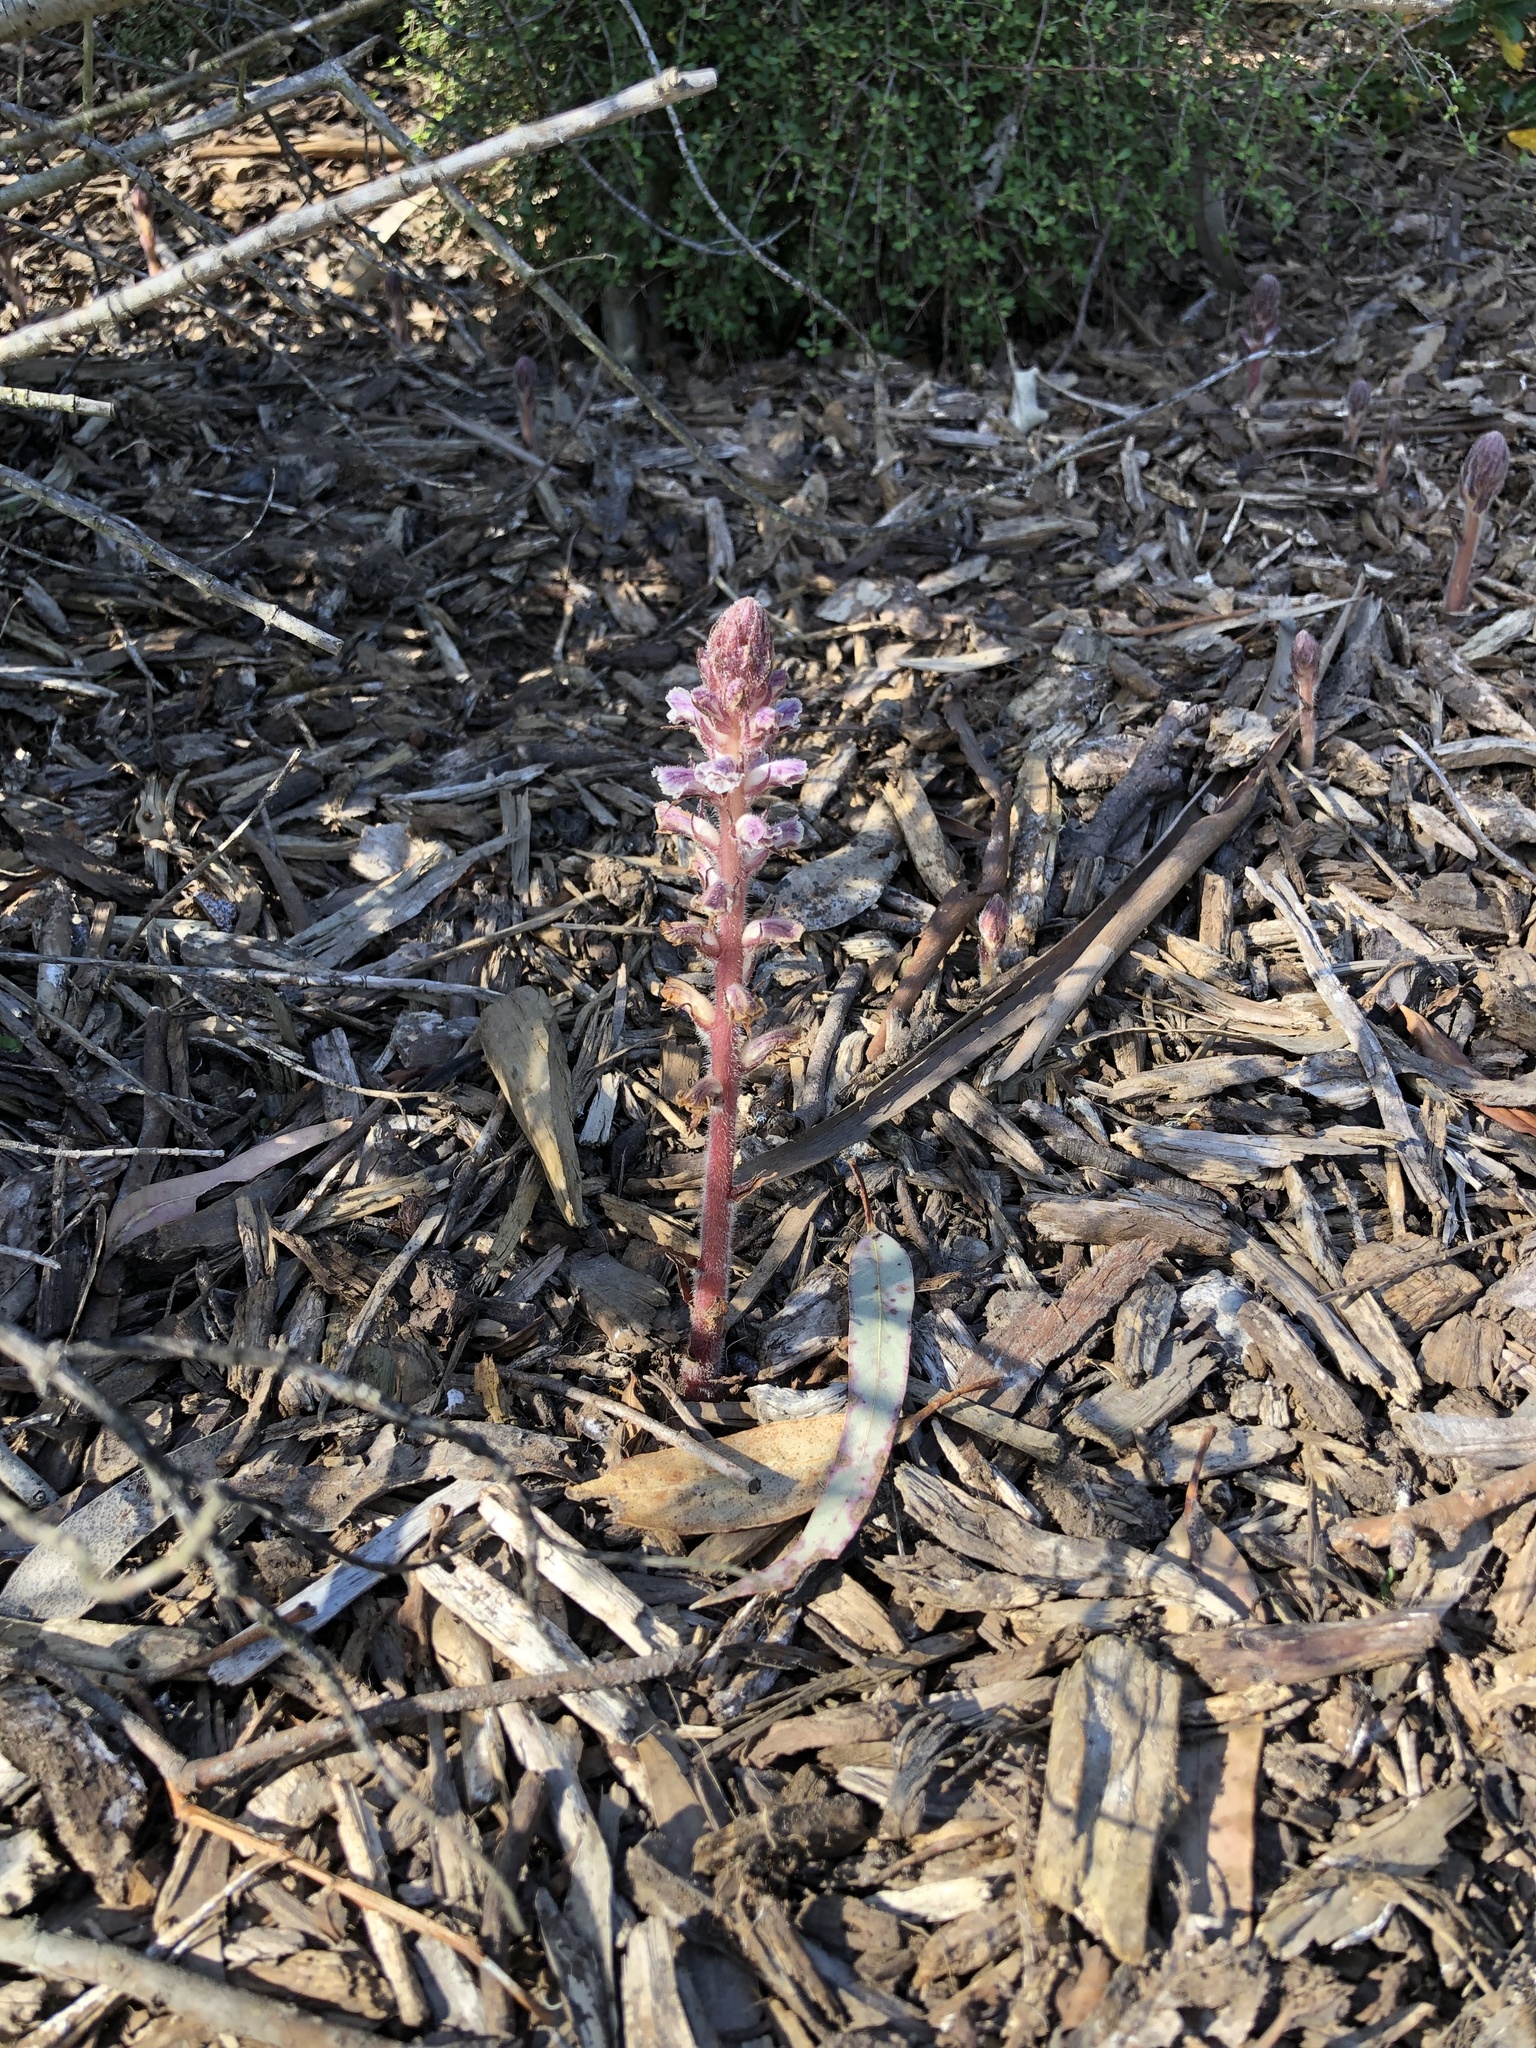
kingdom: Plantae
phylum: Tracheophyta
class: Magnoliopsida
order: Lamiales
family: Orobanchaceae
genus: Orobanche
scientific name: Orobanche minor
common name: Common broomrape
